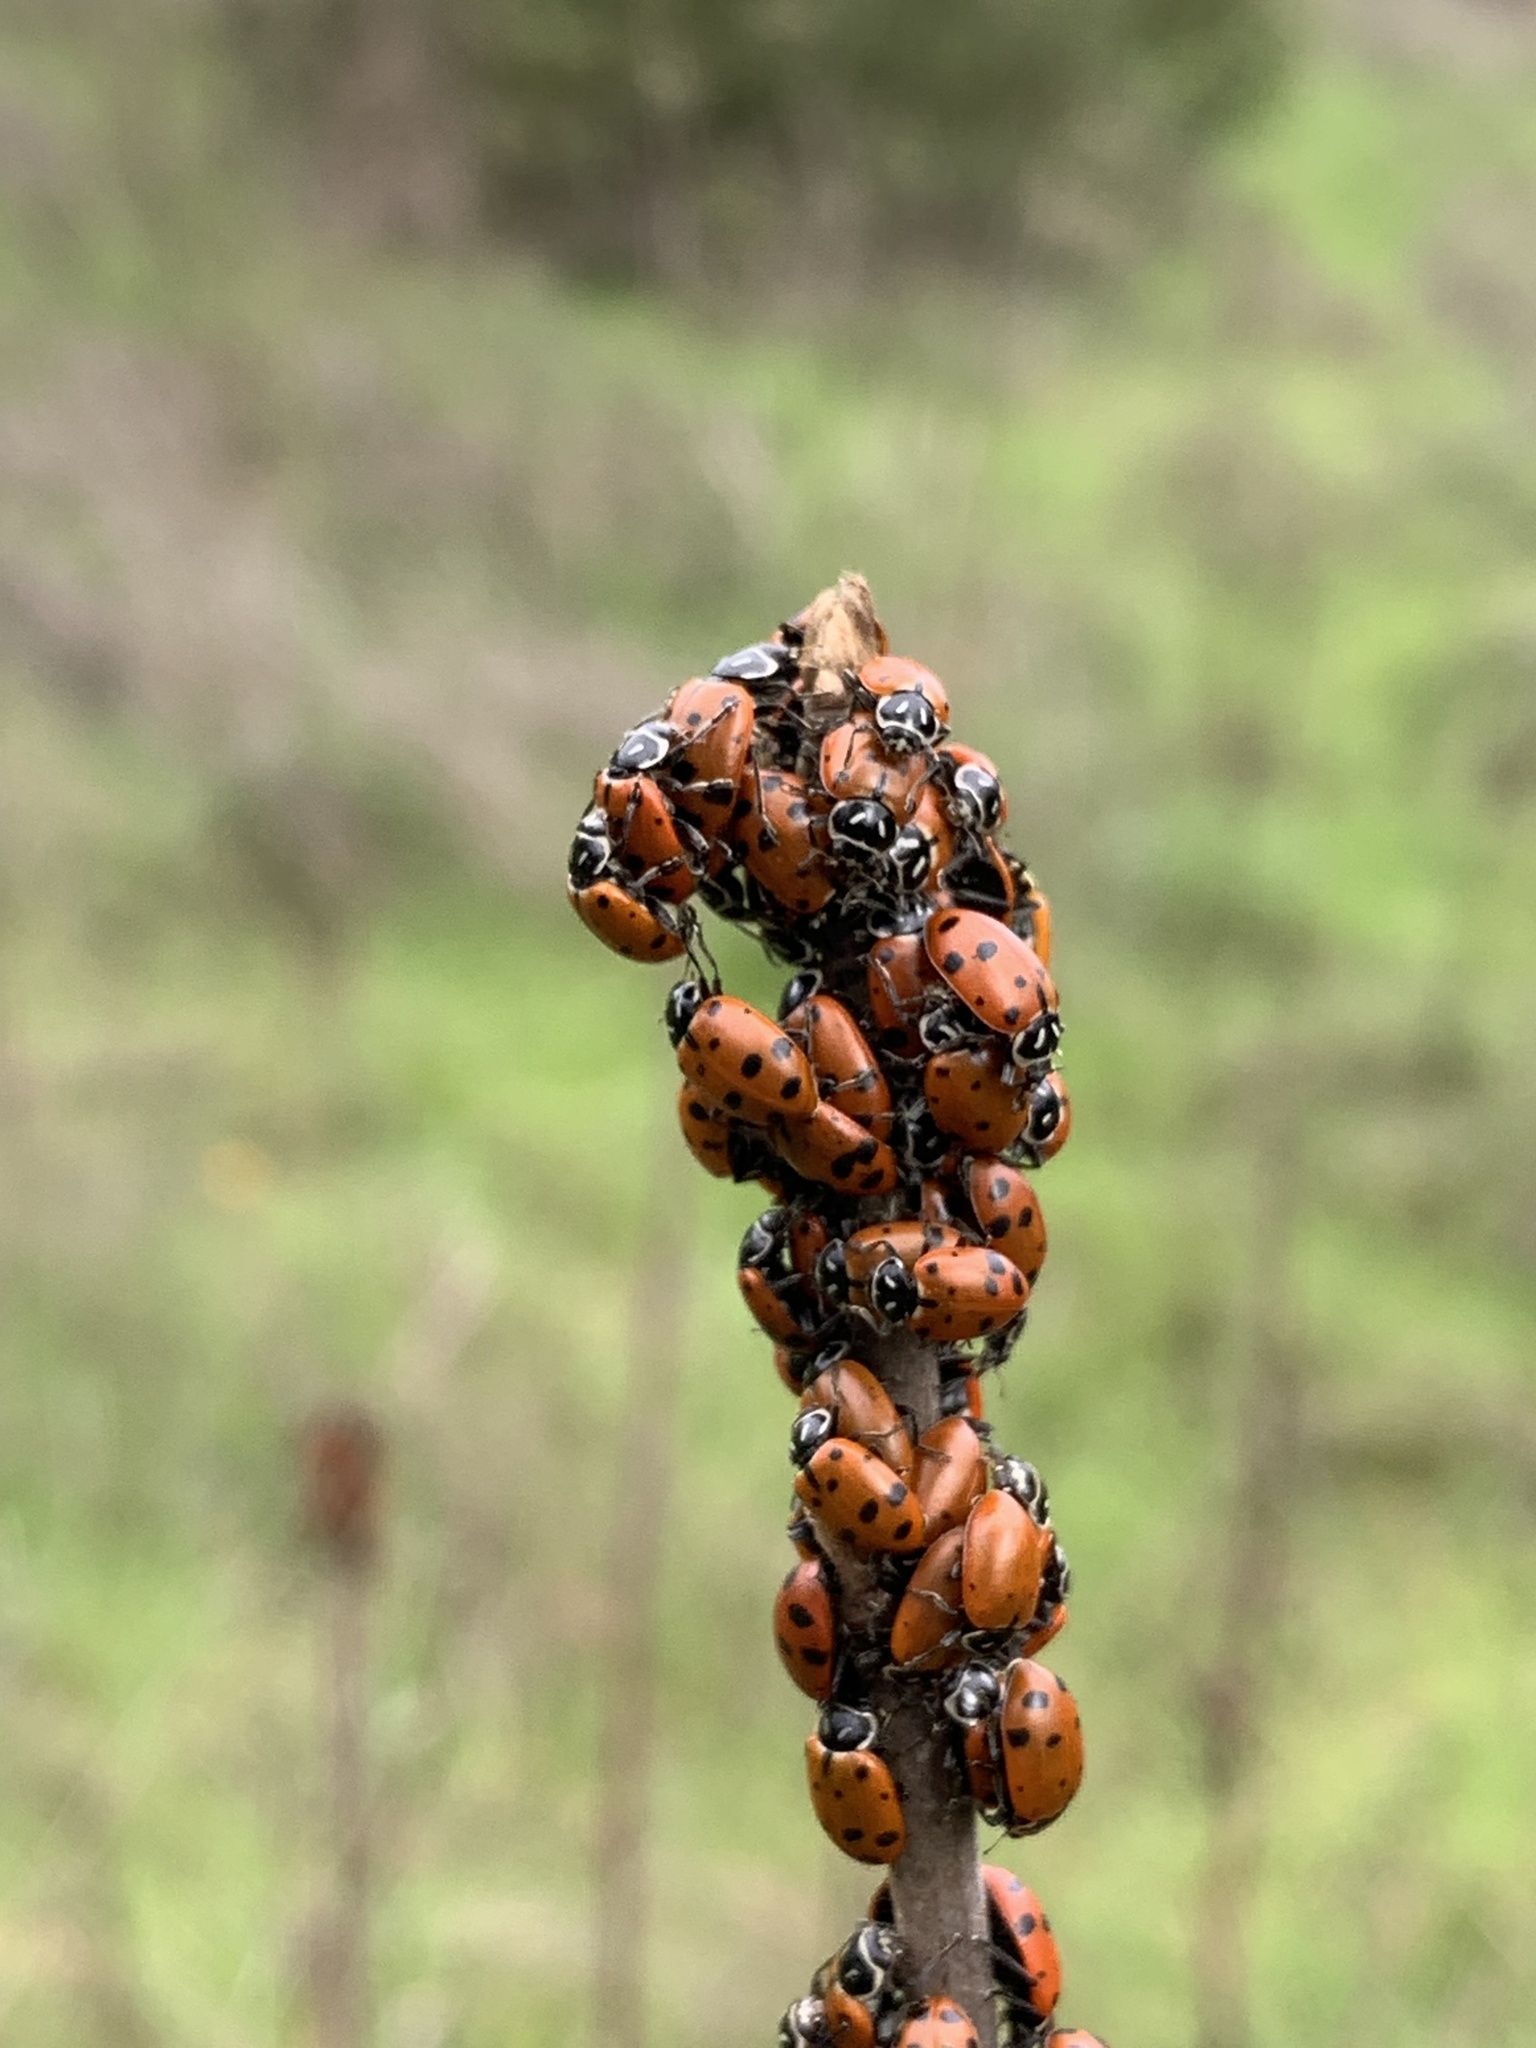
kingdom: Animalia
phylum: Arthropoda
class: Insecta
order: Coleoptera
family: Coccinellidae
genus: Hippodamia
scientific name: Hippodamia convergens
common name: Convergent lady beetle
